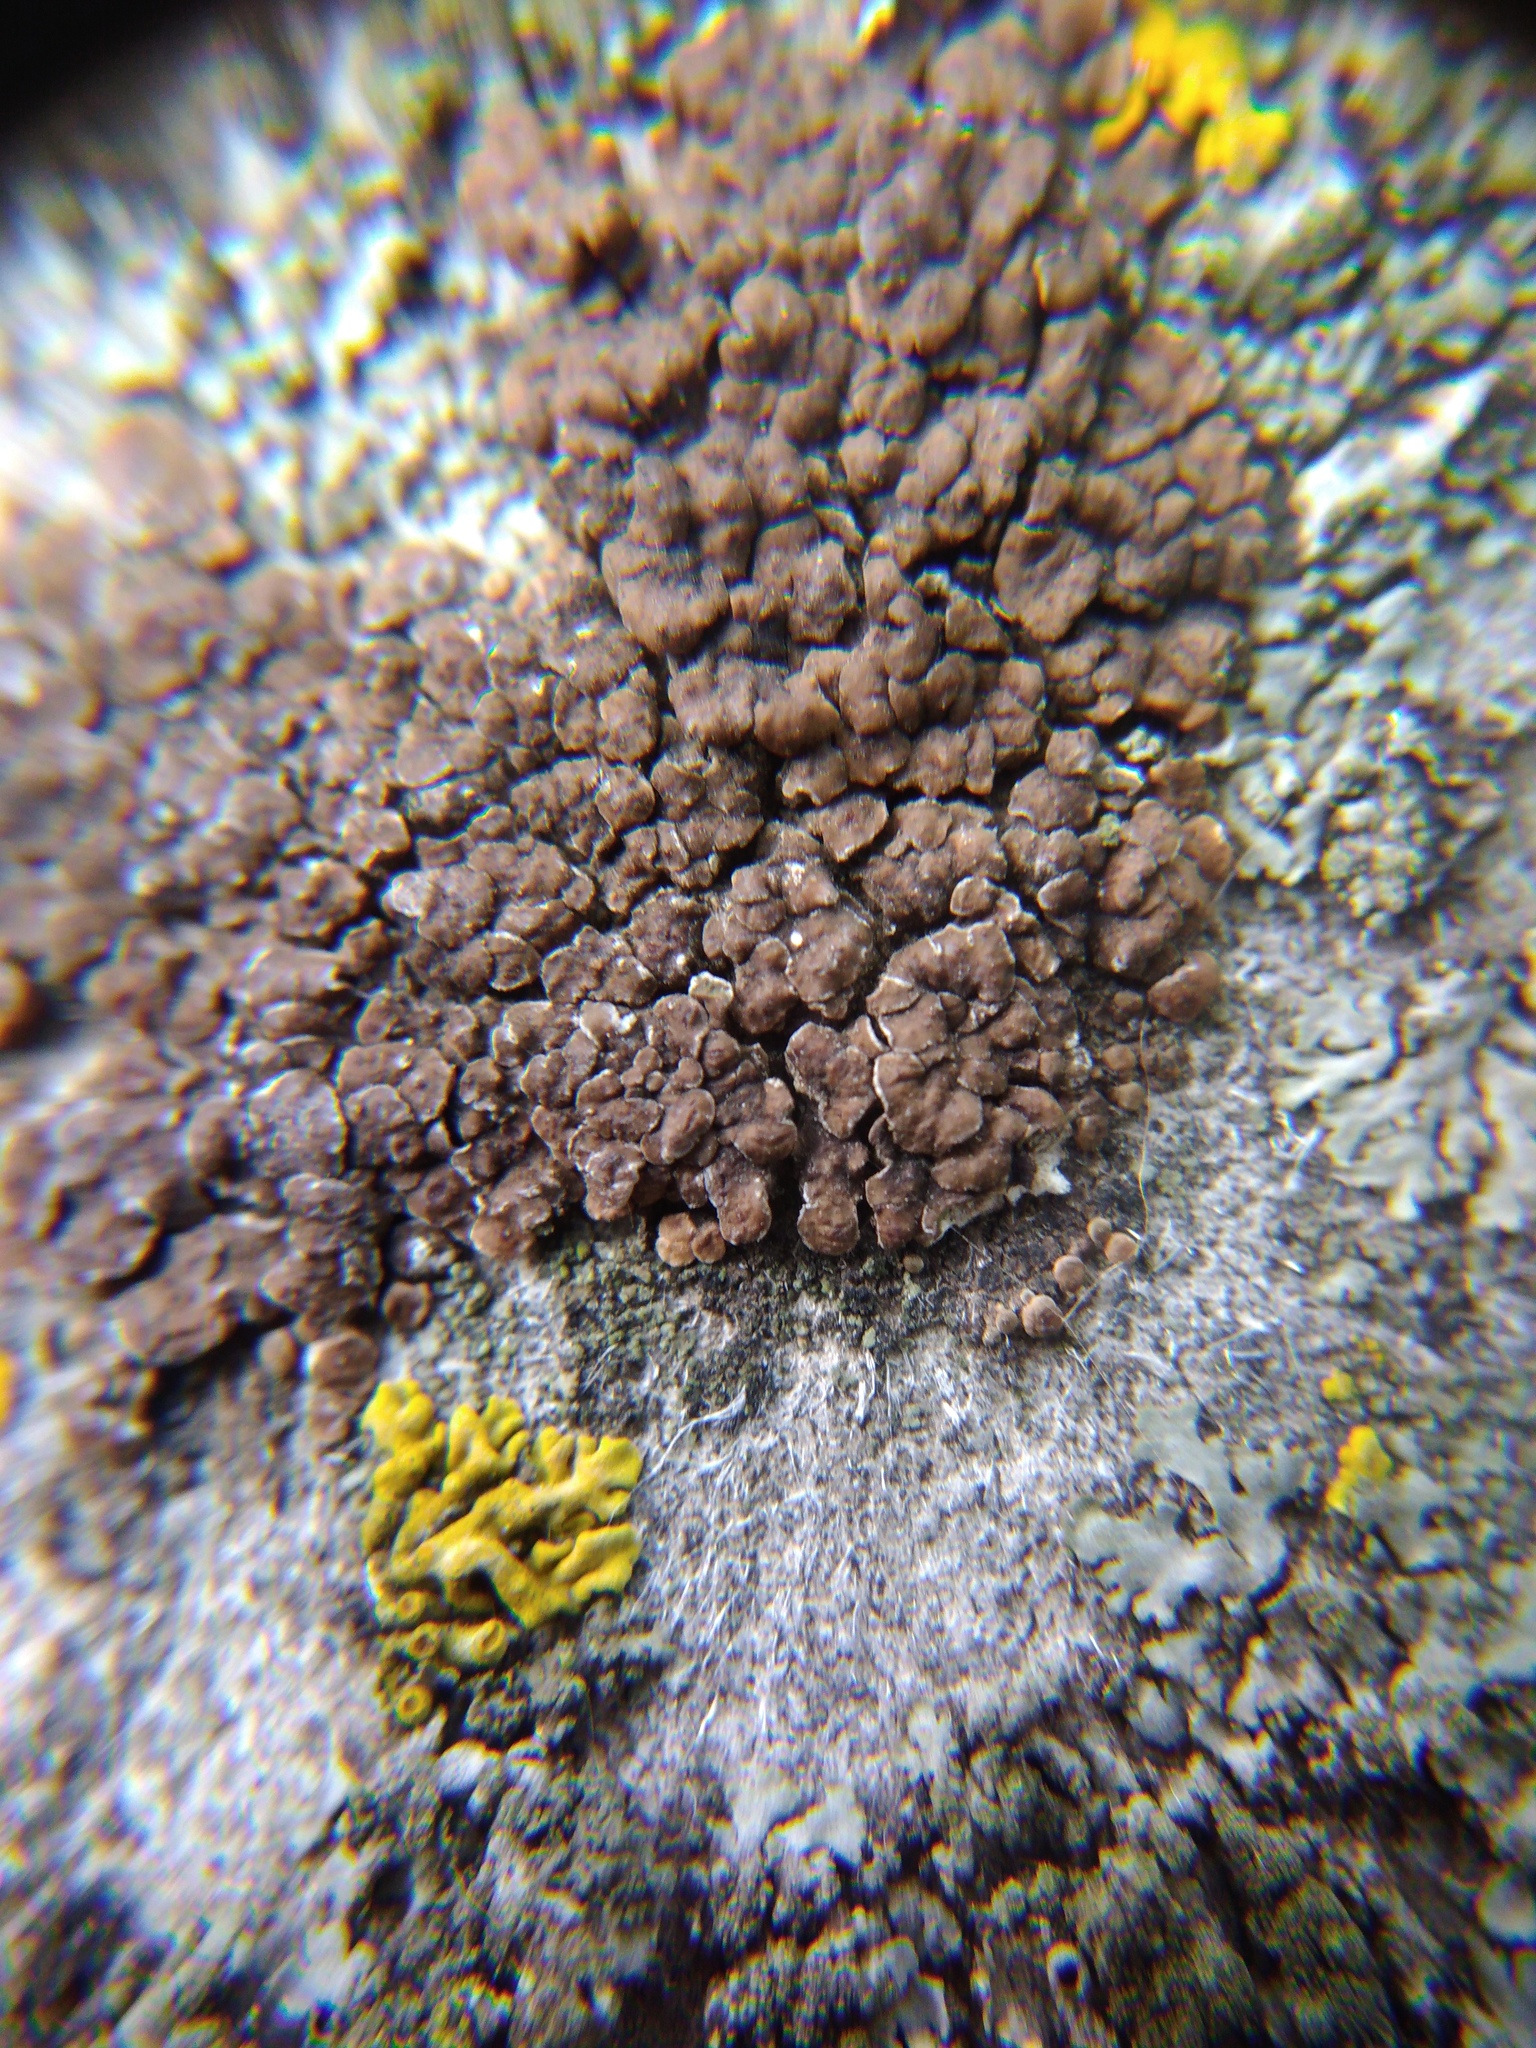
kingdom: Fungi
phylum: Ascomycota
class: Lecanoromycetes
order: Acarosporales
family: Acarosporaceae
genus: Acarospora
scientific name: Acarospora cervina
